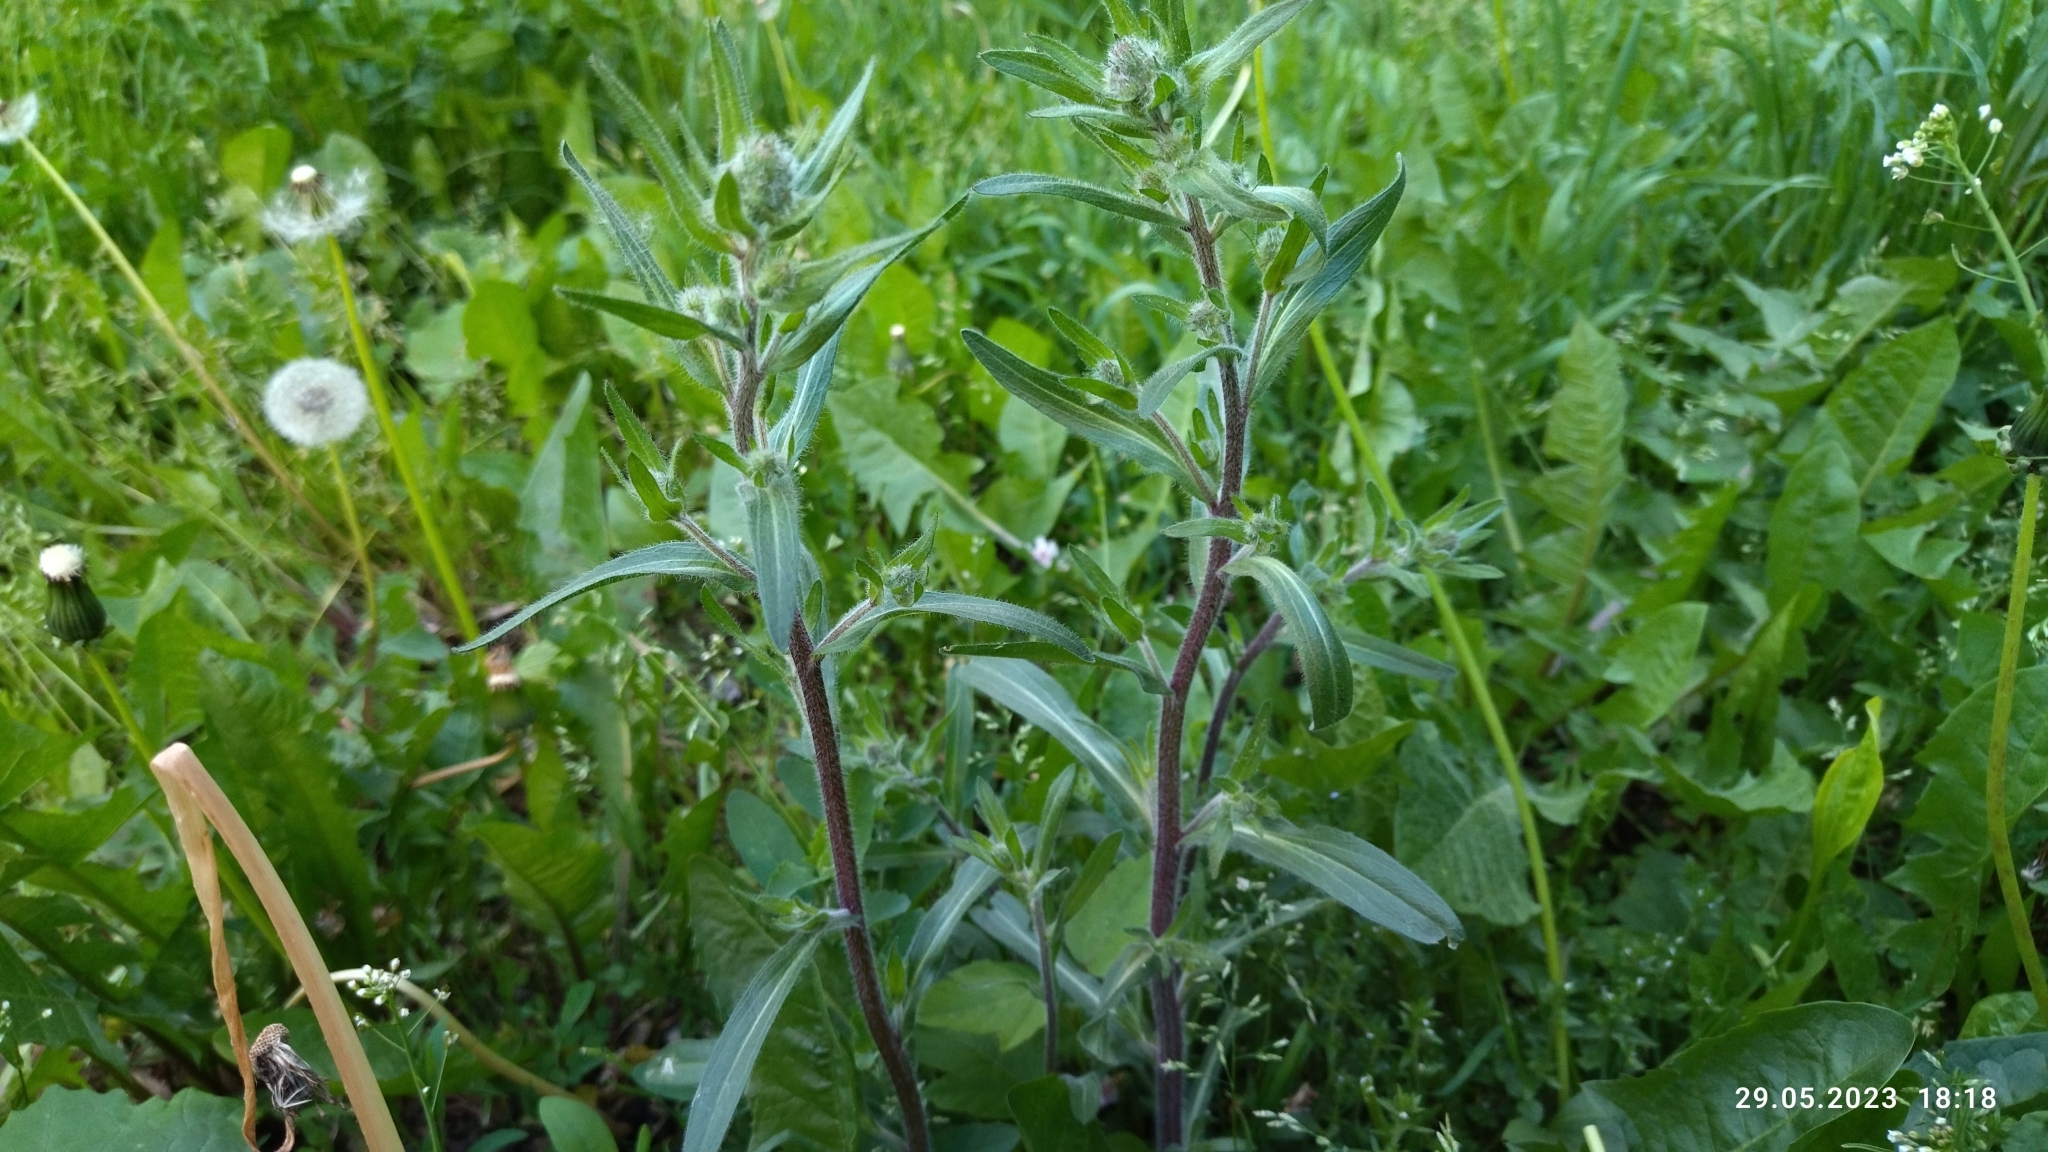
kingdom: Plantae
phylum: Tracheophyta
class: Magnoliopsida
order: Asterales
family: Asteraceae
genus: Erigeron
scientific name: Erigeron acris
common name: Blue fleabane
